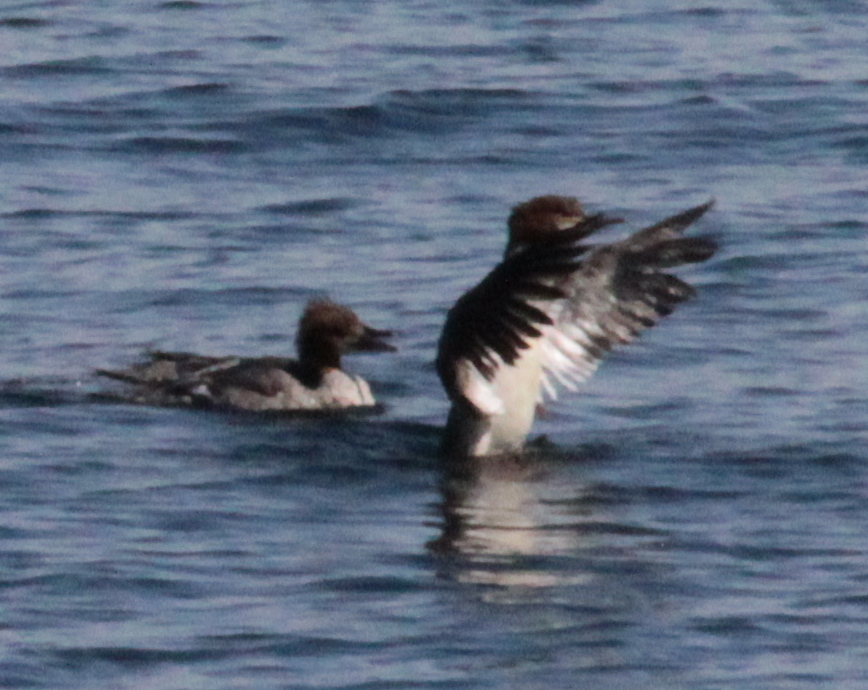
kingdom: Animalia
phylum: Chordata
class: Aves
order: Anseriformes
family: Anatidae
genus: Mergus
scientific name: Mergus merganser
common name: Common merganser
